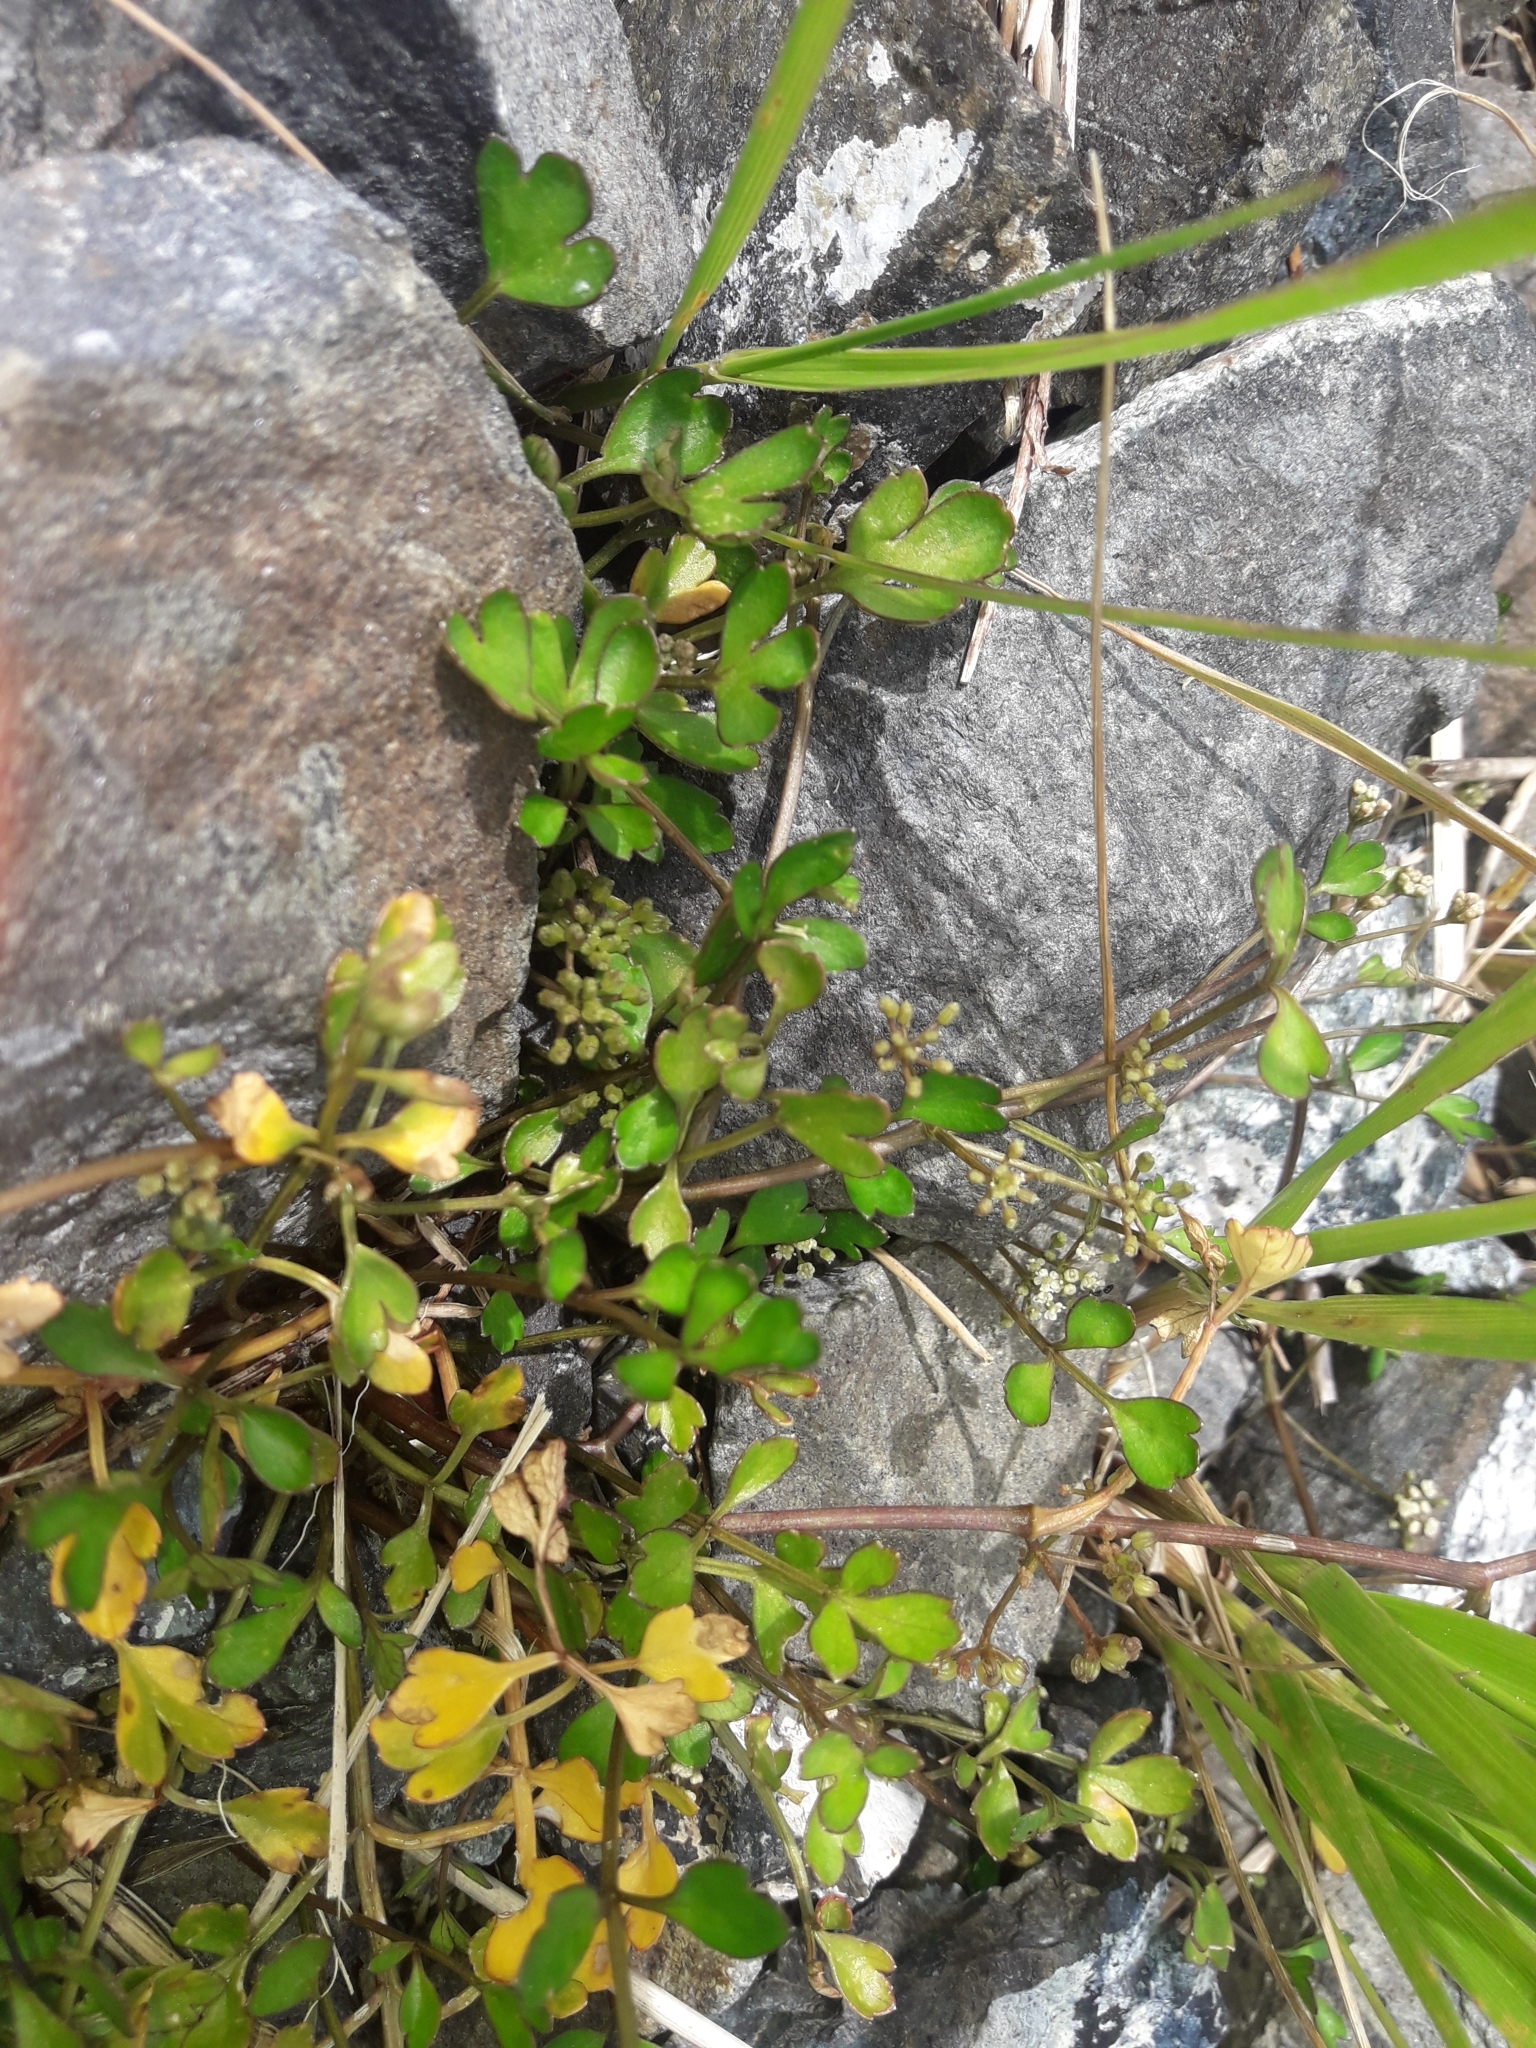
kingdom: Plantae
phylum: Tracheophyta
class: Magnoliopsida
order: Apiales
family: Apiaceae
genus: Apium
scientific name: Apium prostratum
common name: Prostrate marshwort
